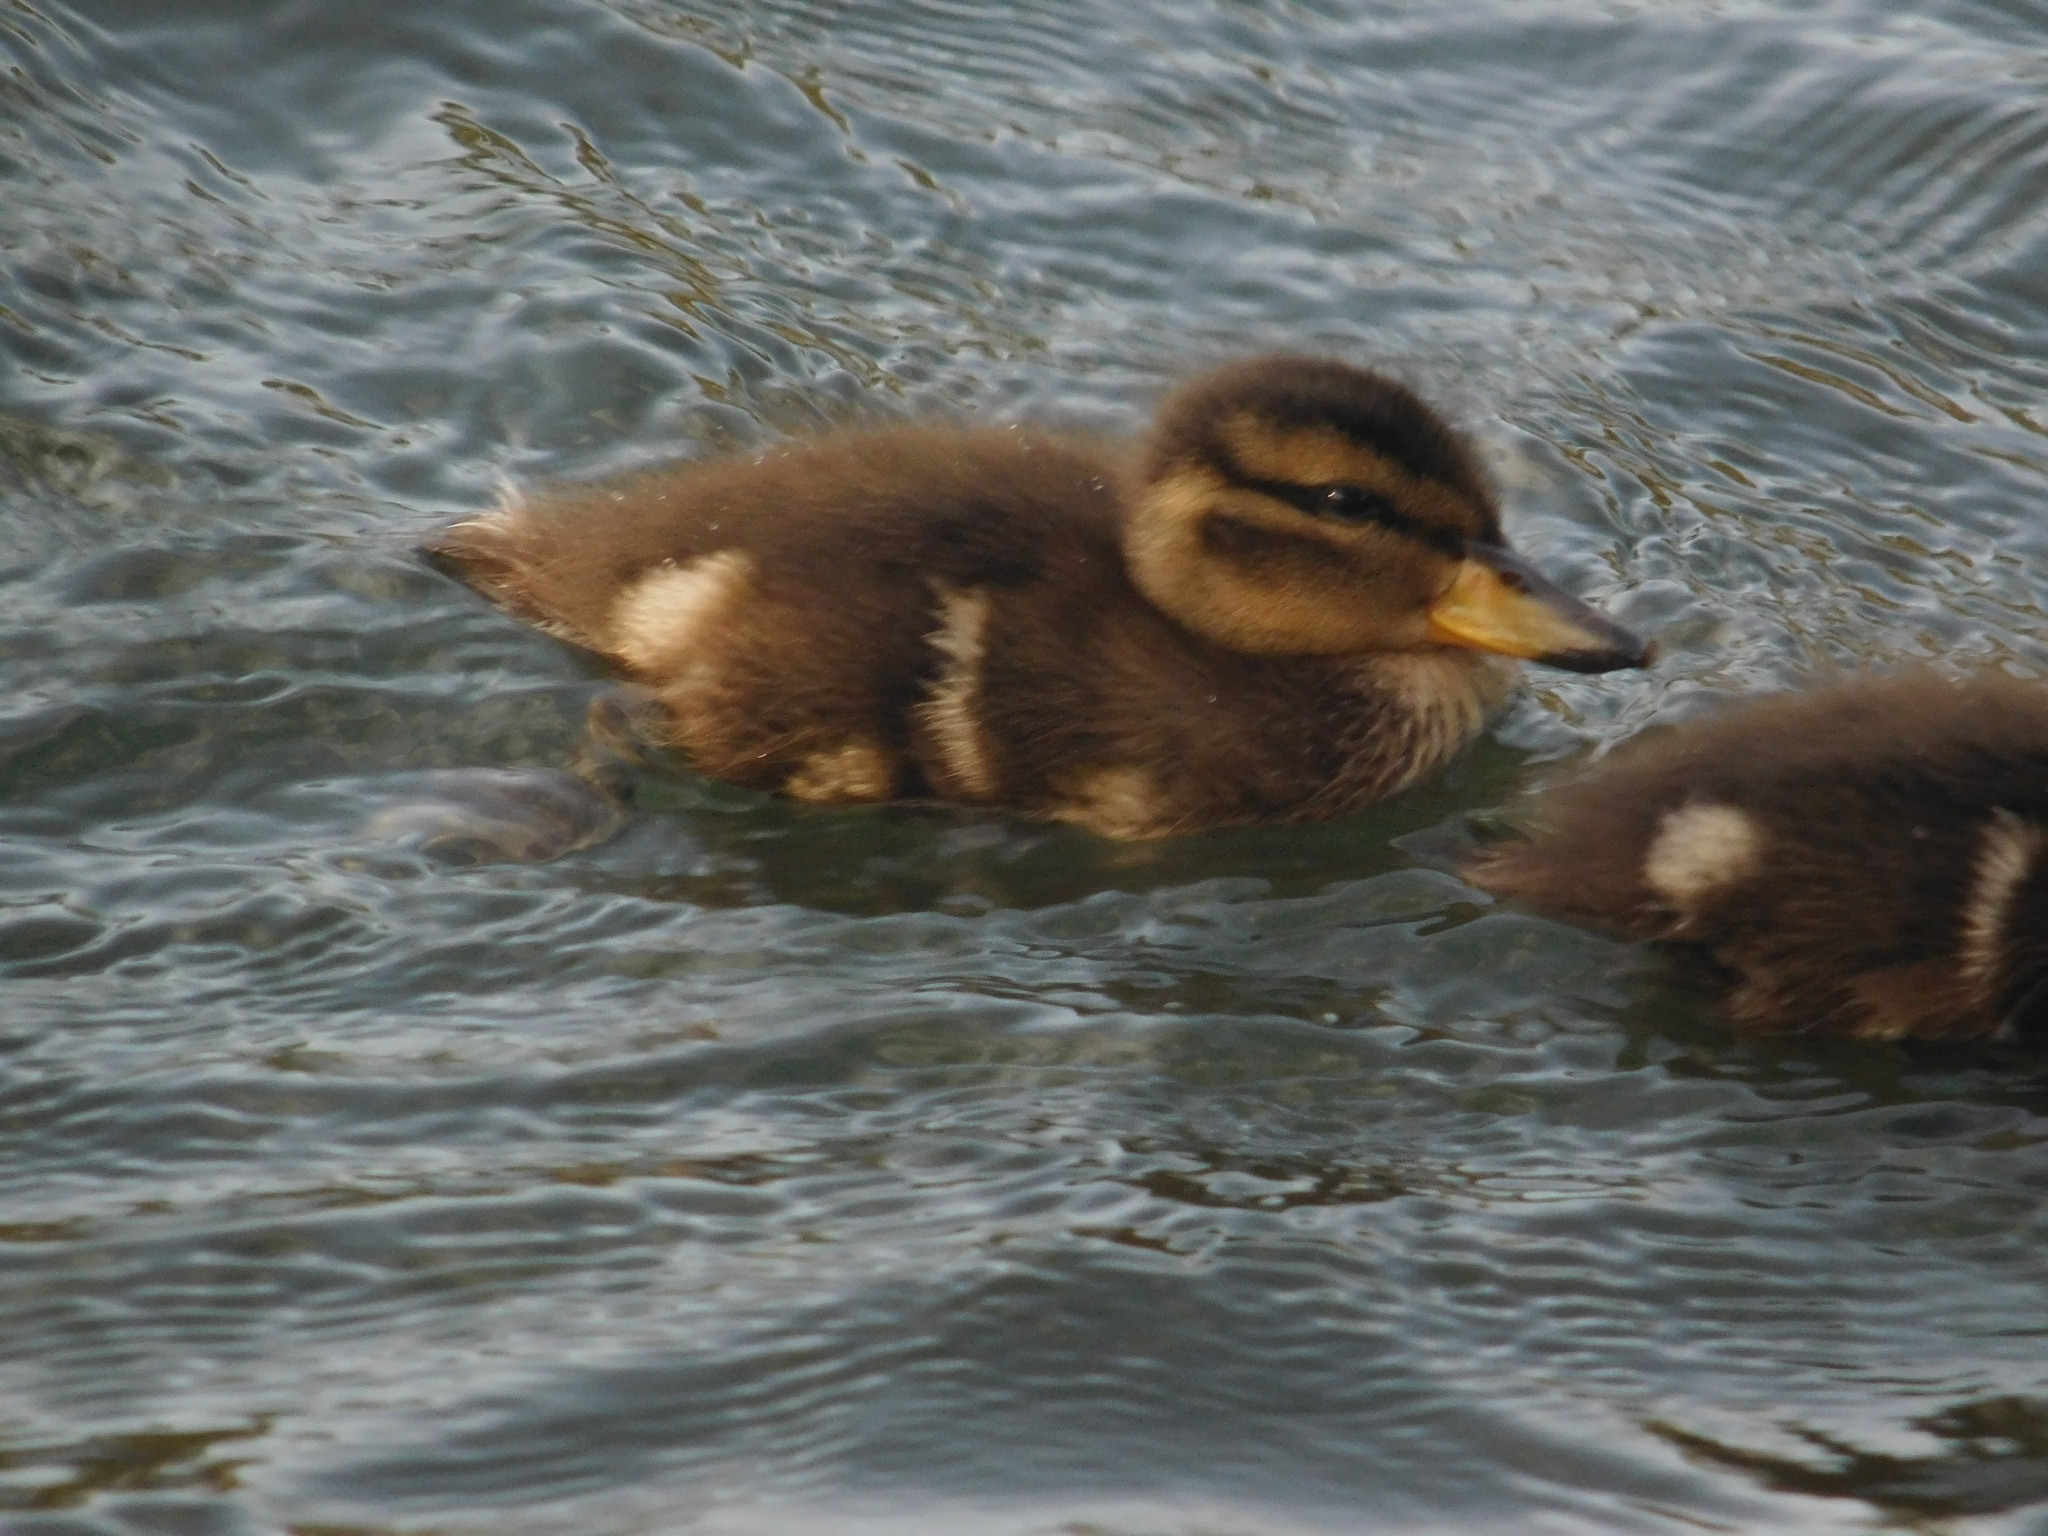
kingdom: Animalia
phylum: Chordata
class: Aves
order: Anseriformes
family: Anatidae
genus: Anas
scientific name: Anas flavirostris
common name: Yellow-billed teal
